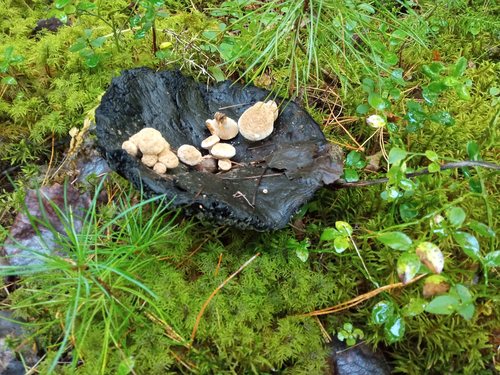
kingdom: Fungi
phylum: Basidiomycota
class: Agaricomycetes
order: Agaricales
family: Lyophyllaceae
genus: Asterophora
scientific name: Asterophora lycoperdoides
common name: Pick-a-back toadstool
